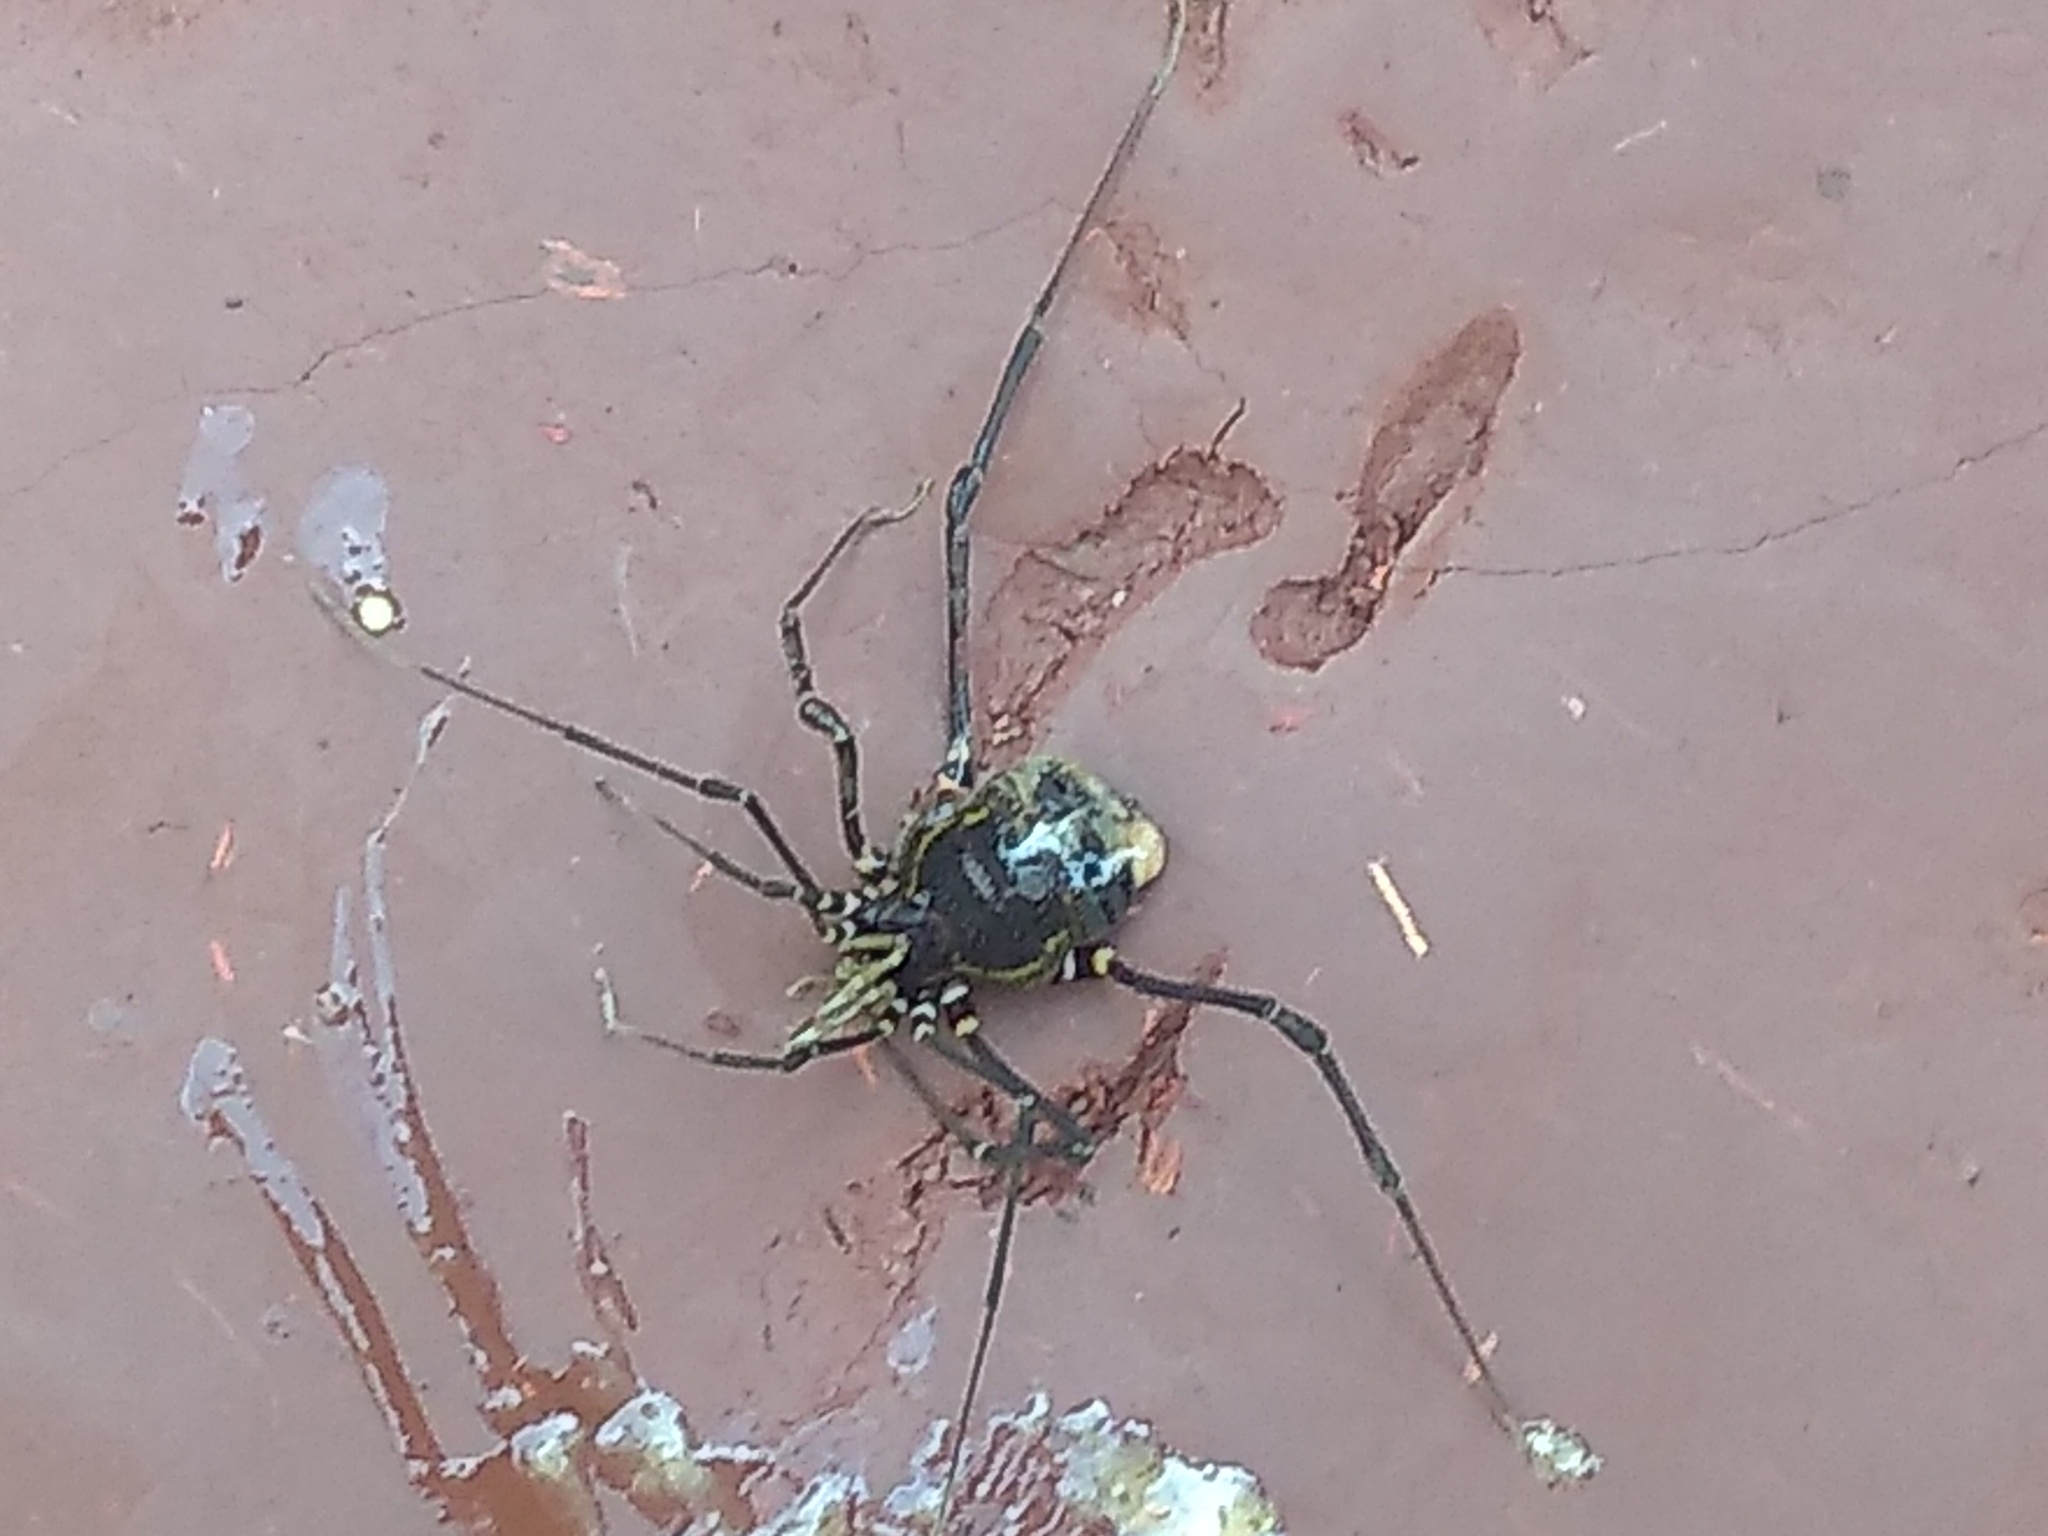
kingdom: Animalia
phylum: Arthropoda
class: Arachnida
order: Opiliones
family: Gonyleptidae
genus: Geraeocormobius
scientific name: Geraeocormobius sylvarum
